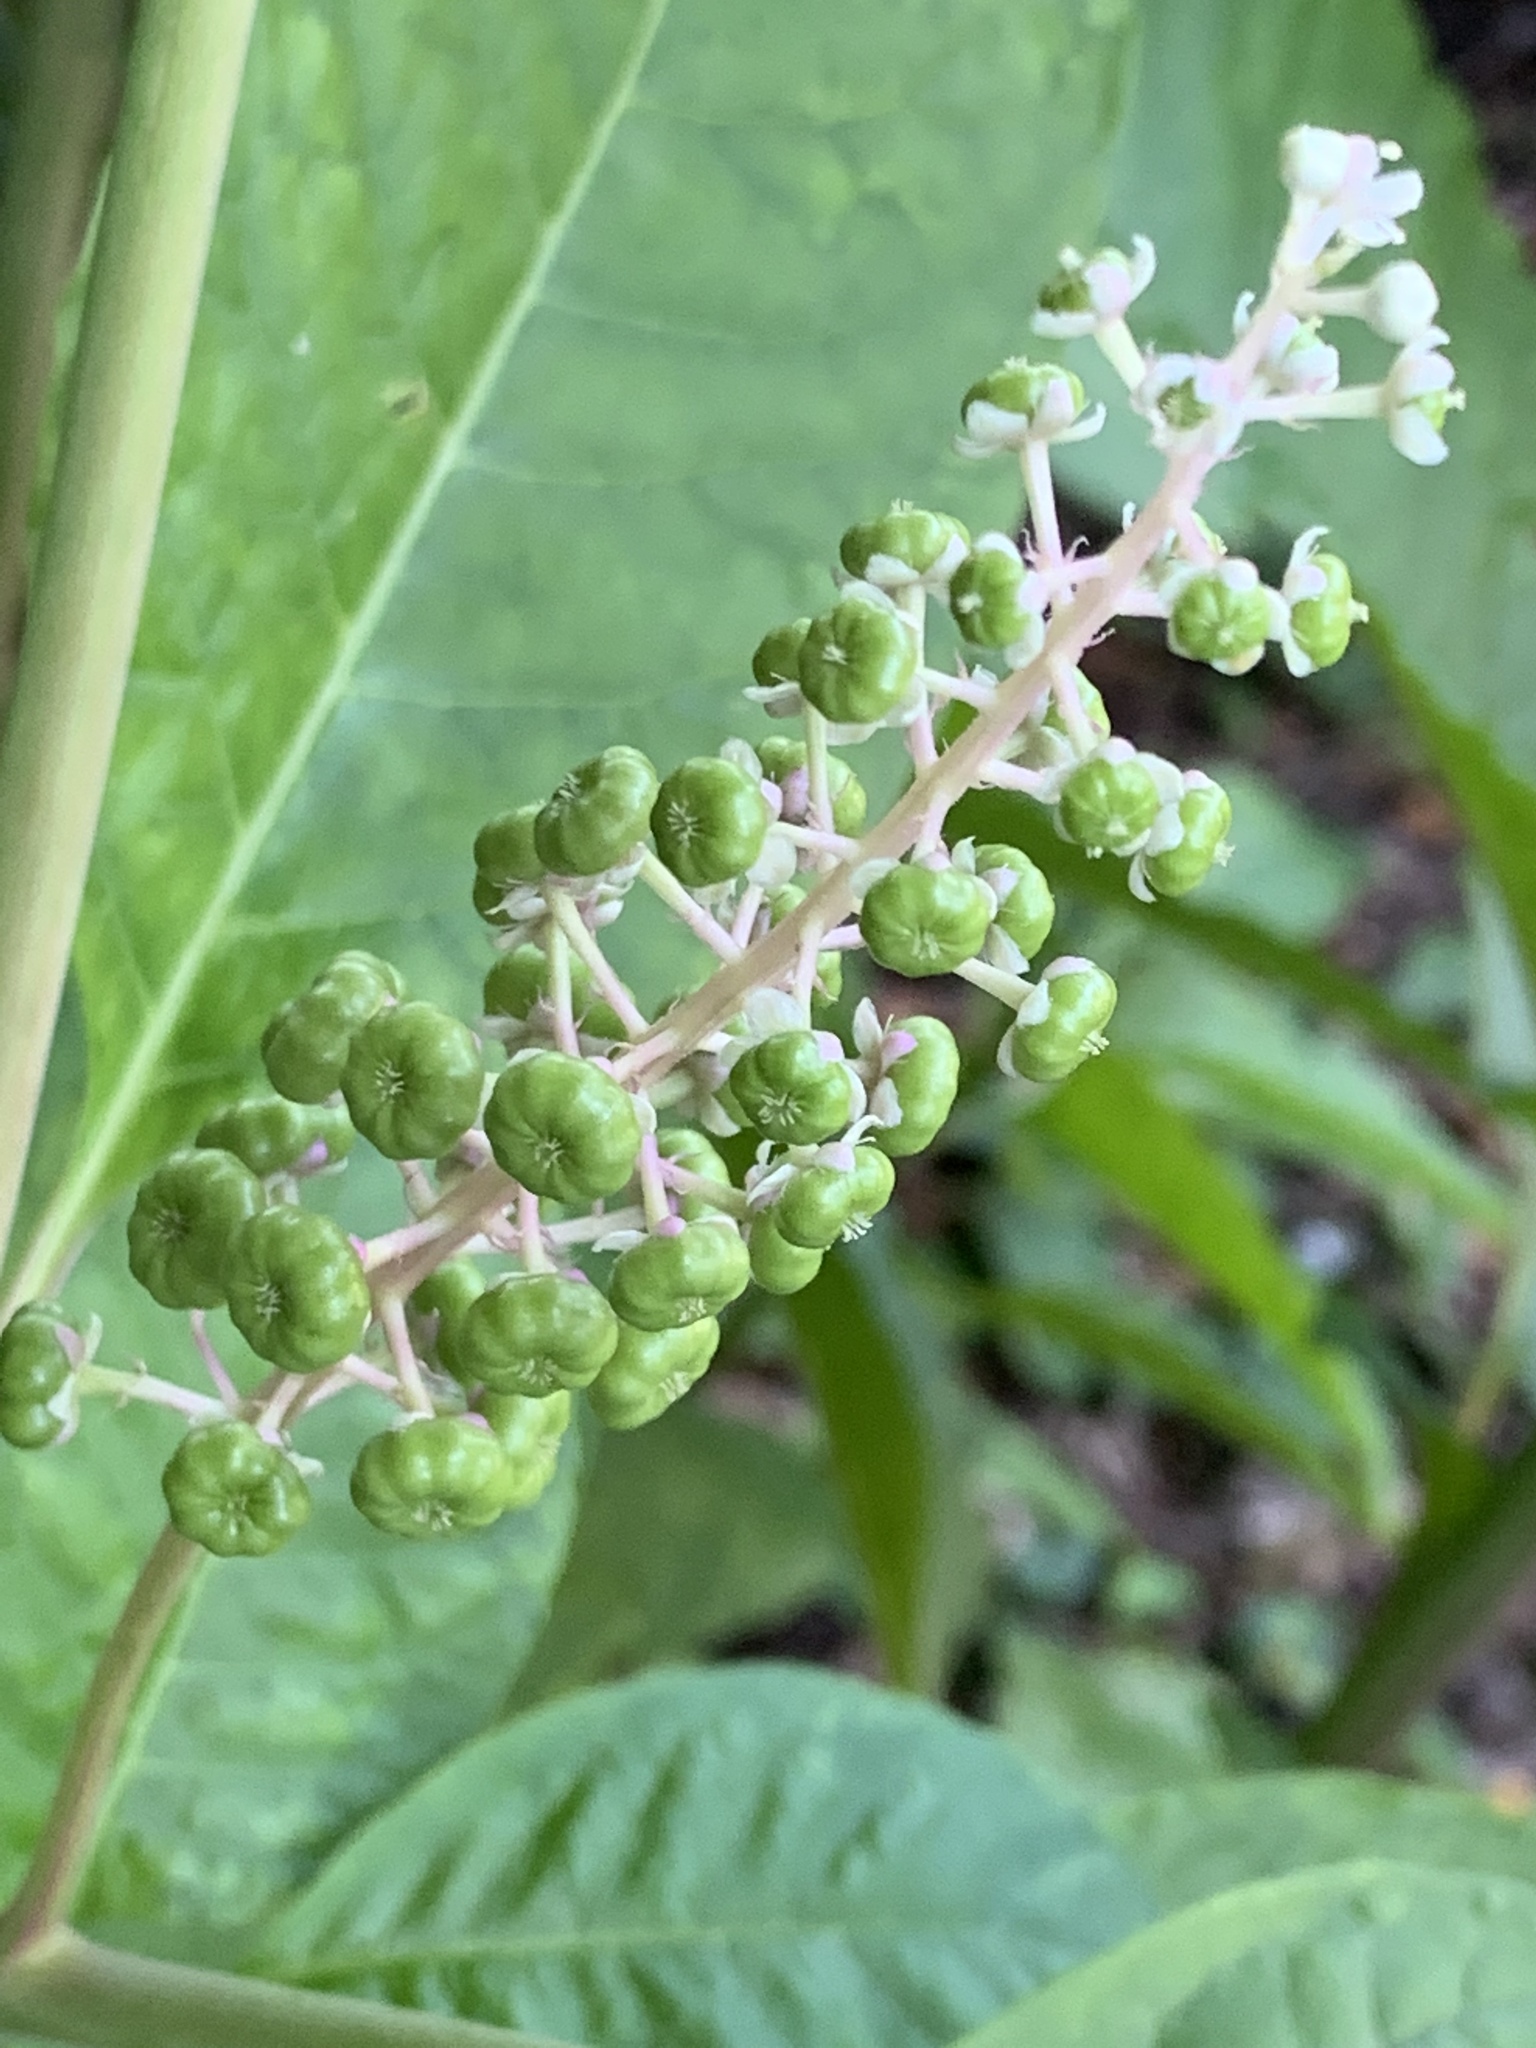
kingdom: Plantae
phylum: Tracheophyta
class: Magnoliopsida
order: Caryophyllales
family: Phytolaccaceae
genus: Phytolacca
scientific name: Phytolacca americana
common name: American pokeweed
